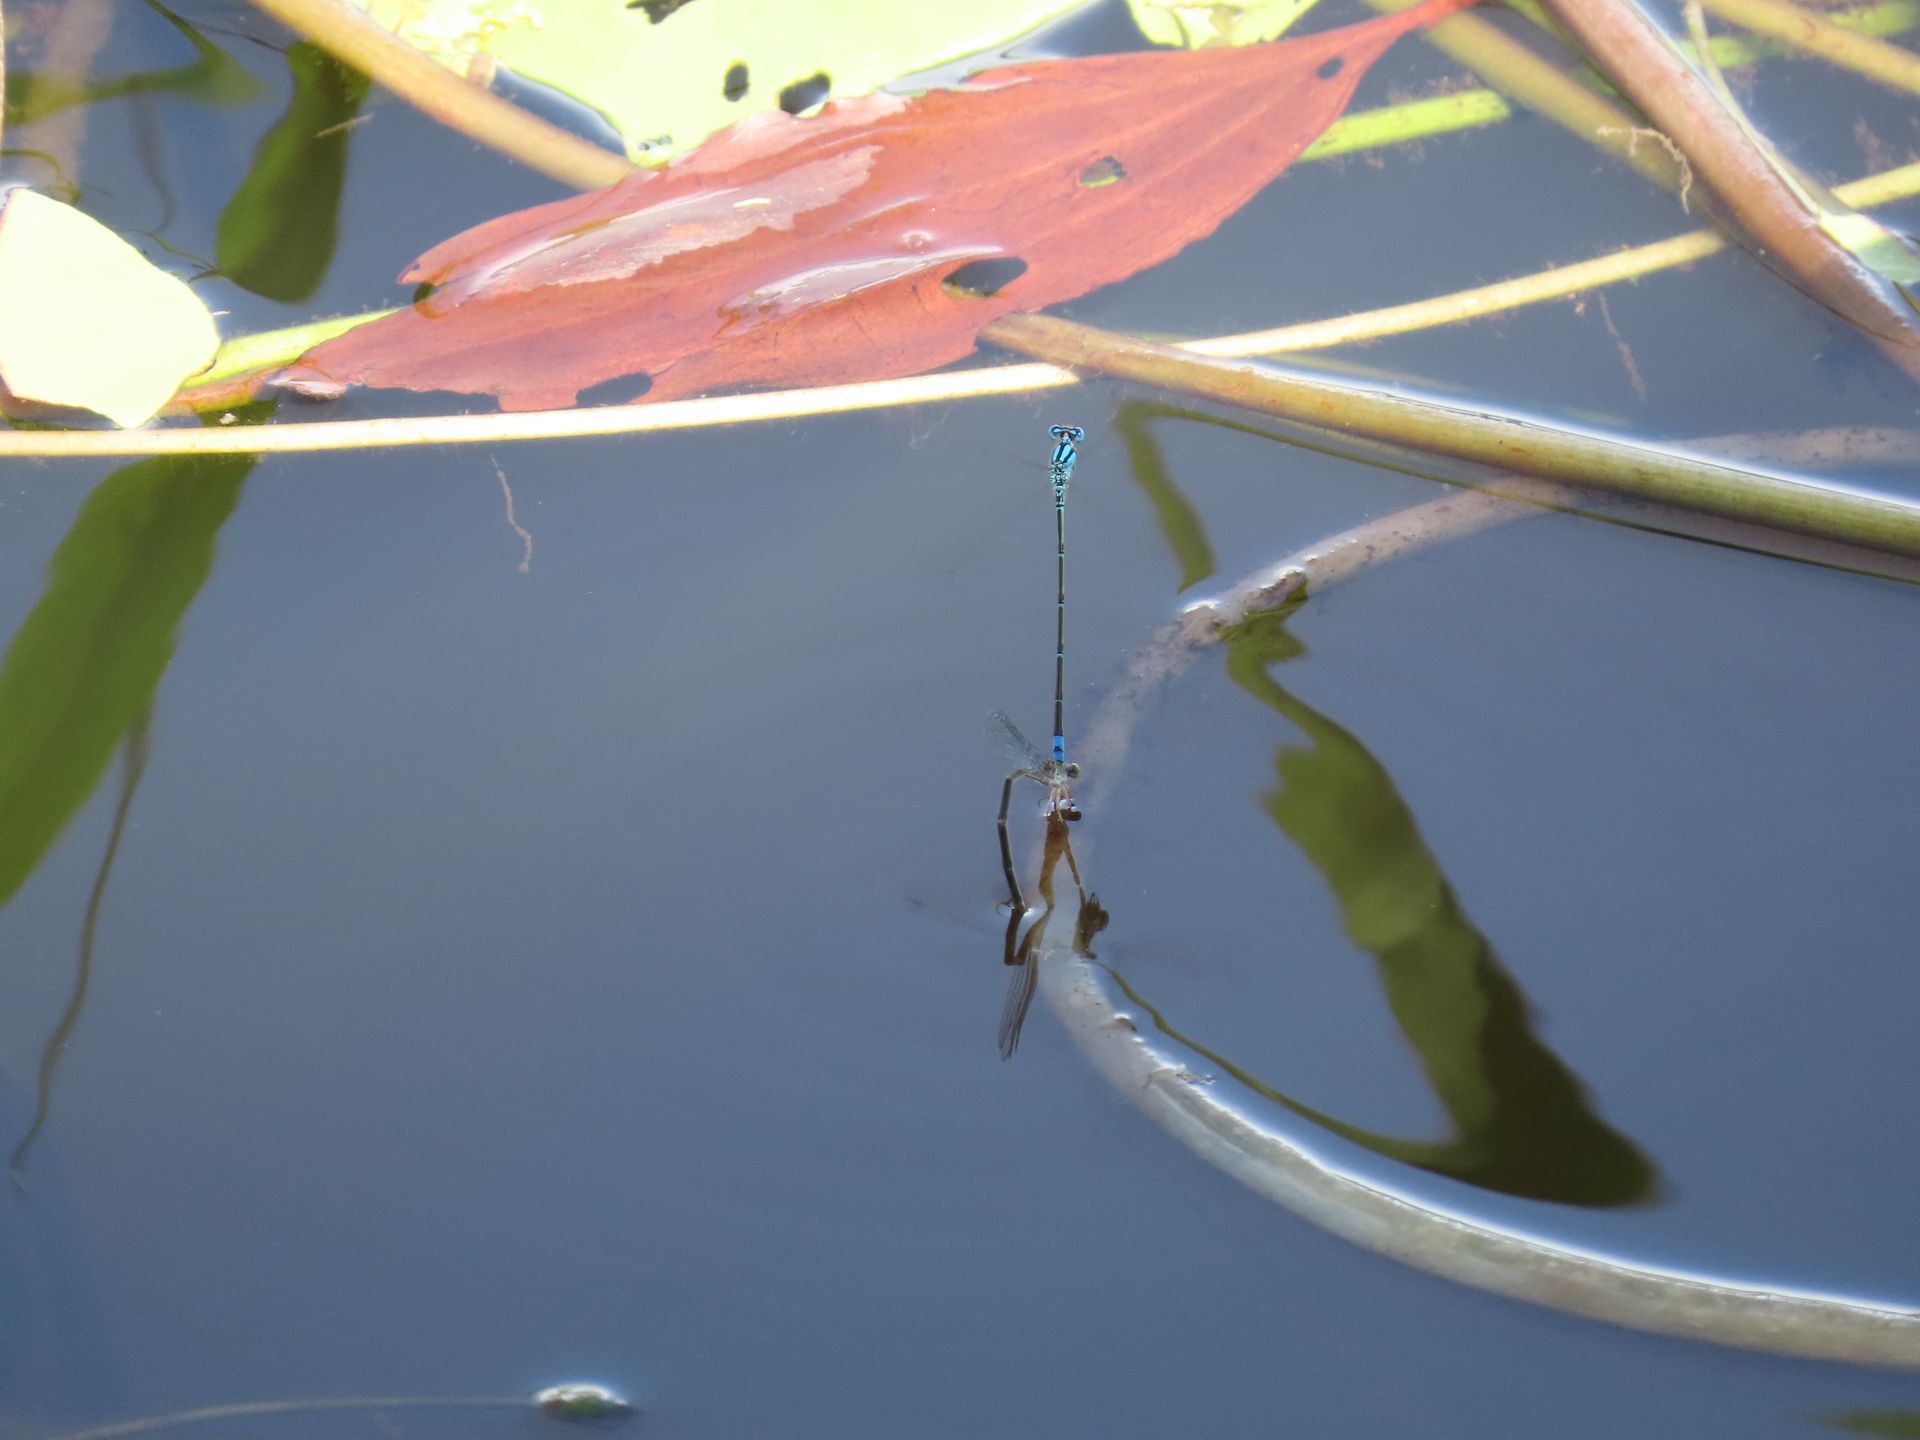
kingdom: Animalia
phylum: Arthropoda
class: Insecta
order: Odonata
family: Coenagrionidae
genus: Pseudagrion
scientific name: Pseudagrion microcephalum
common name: Blue riverdamsel
